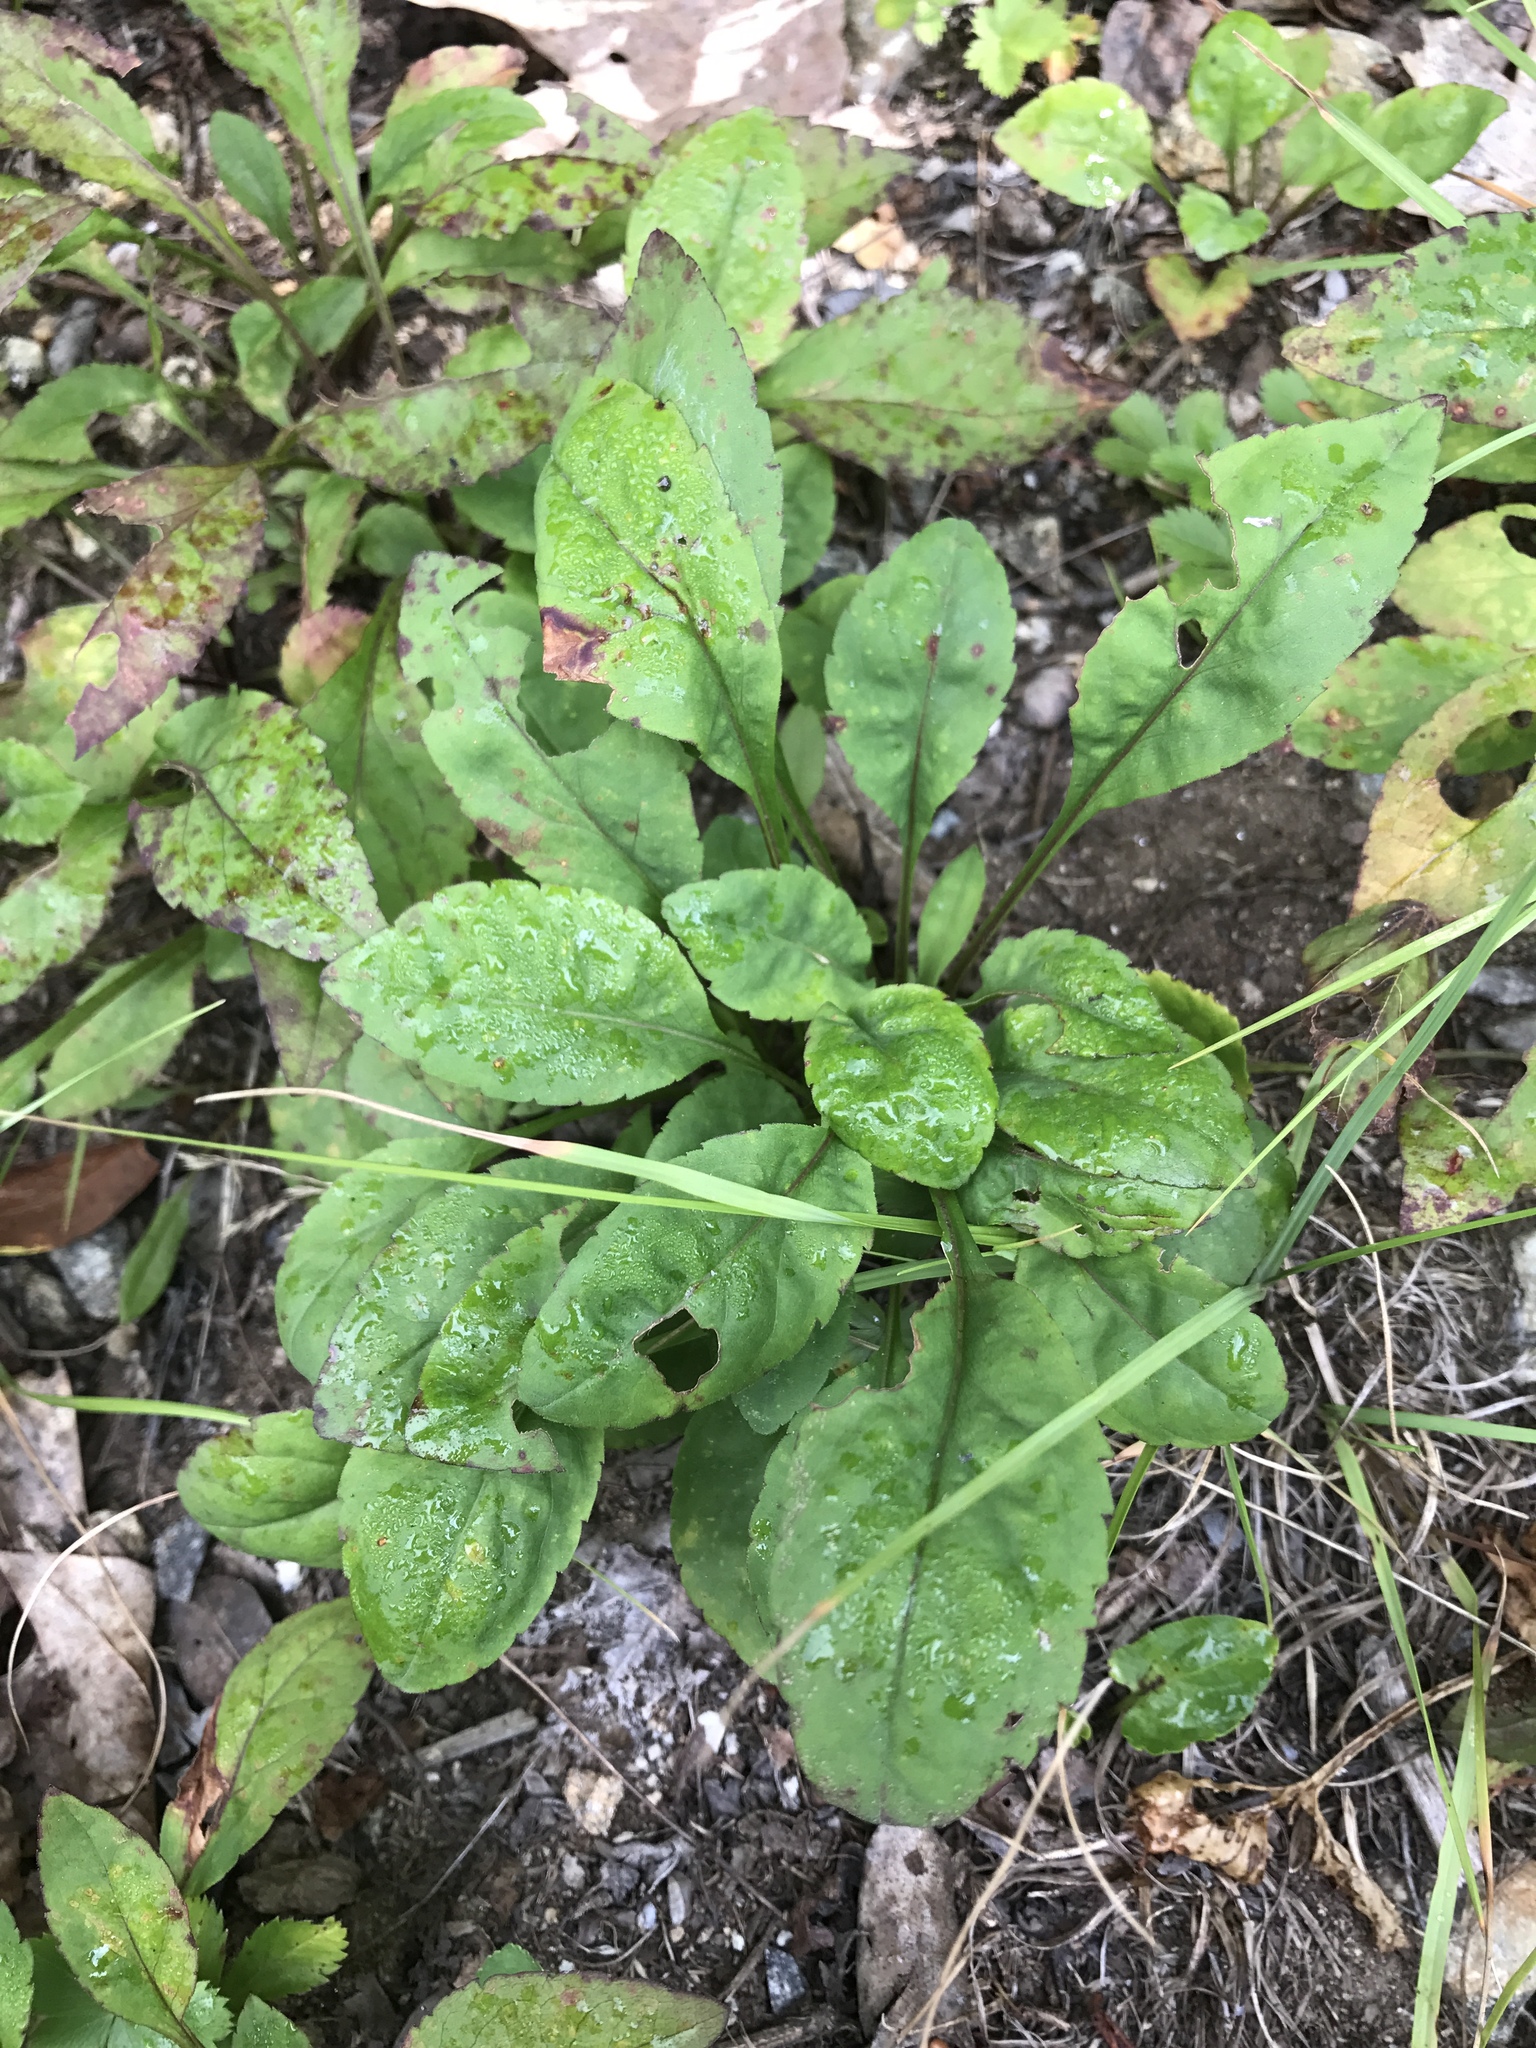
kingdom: Plantae
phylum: Tracheophyta
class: Magnoliopsida
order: Asterales
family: Asteraceae
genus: Solidago
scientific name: Solidago roanensis
